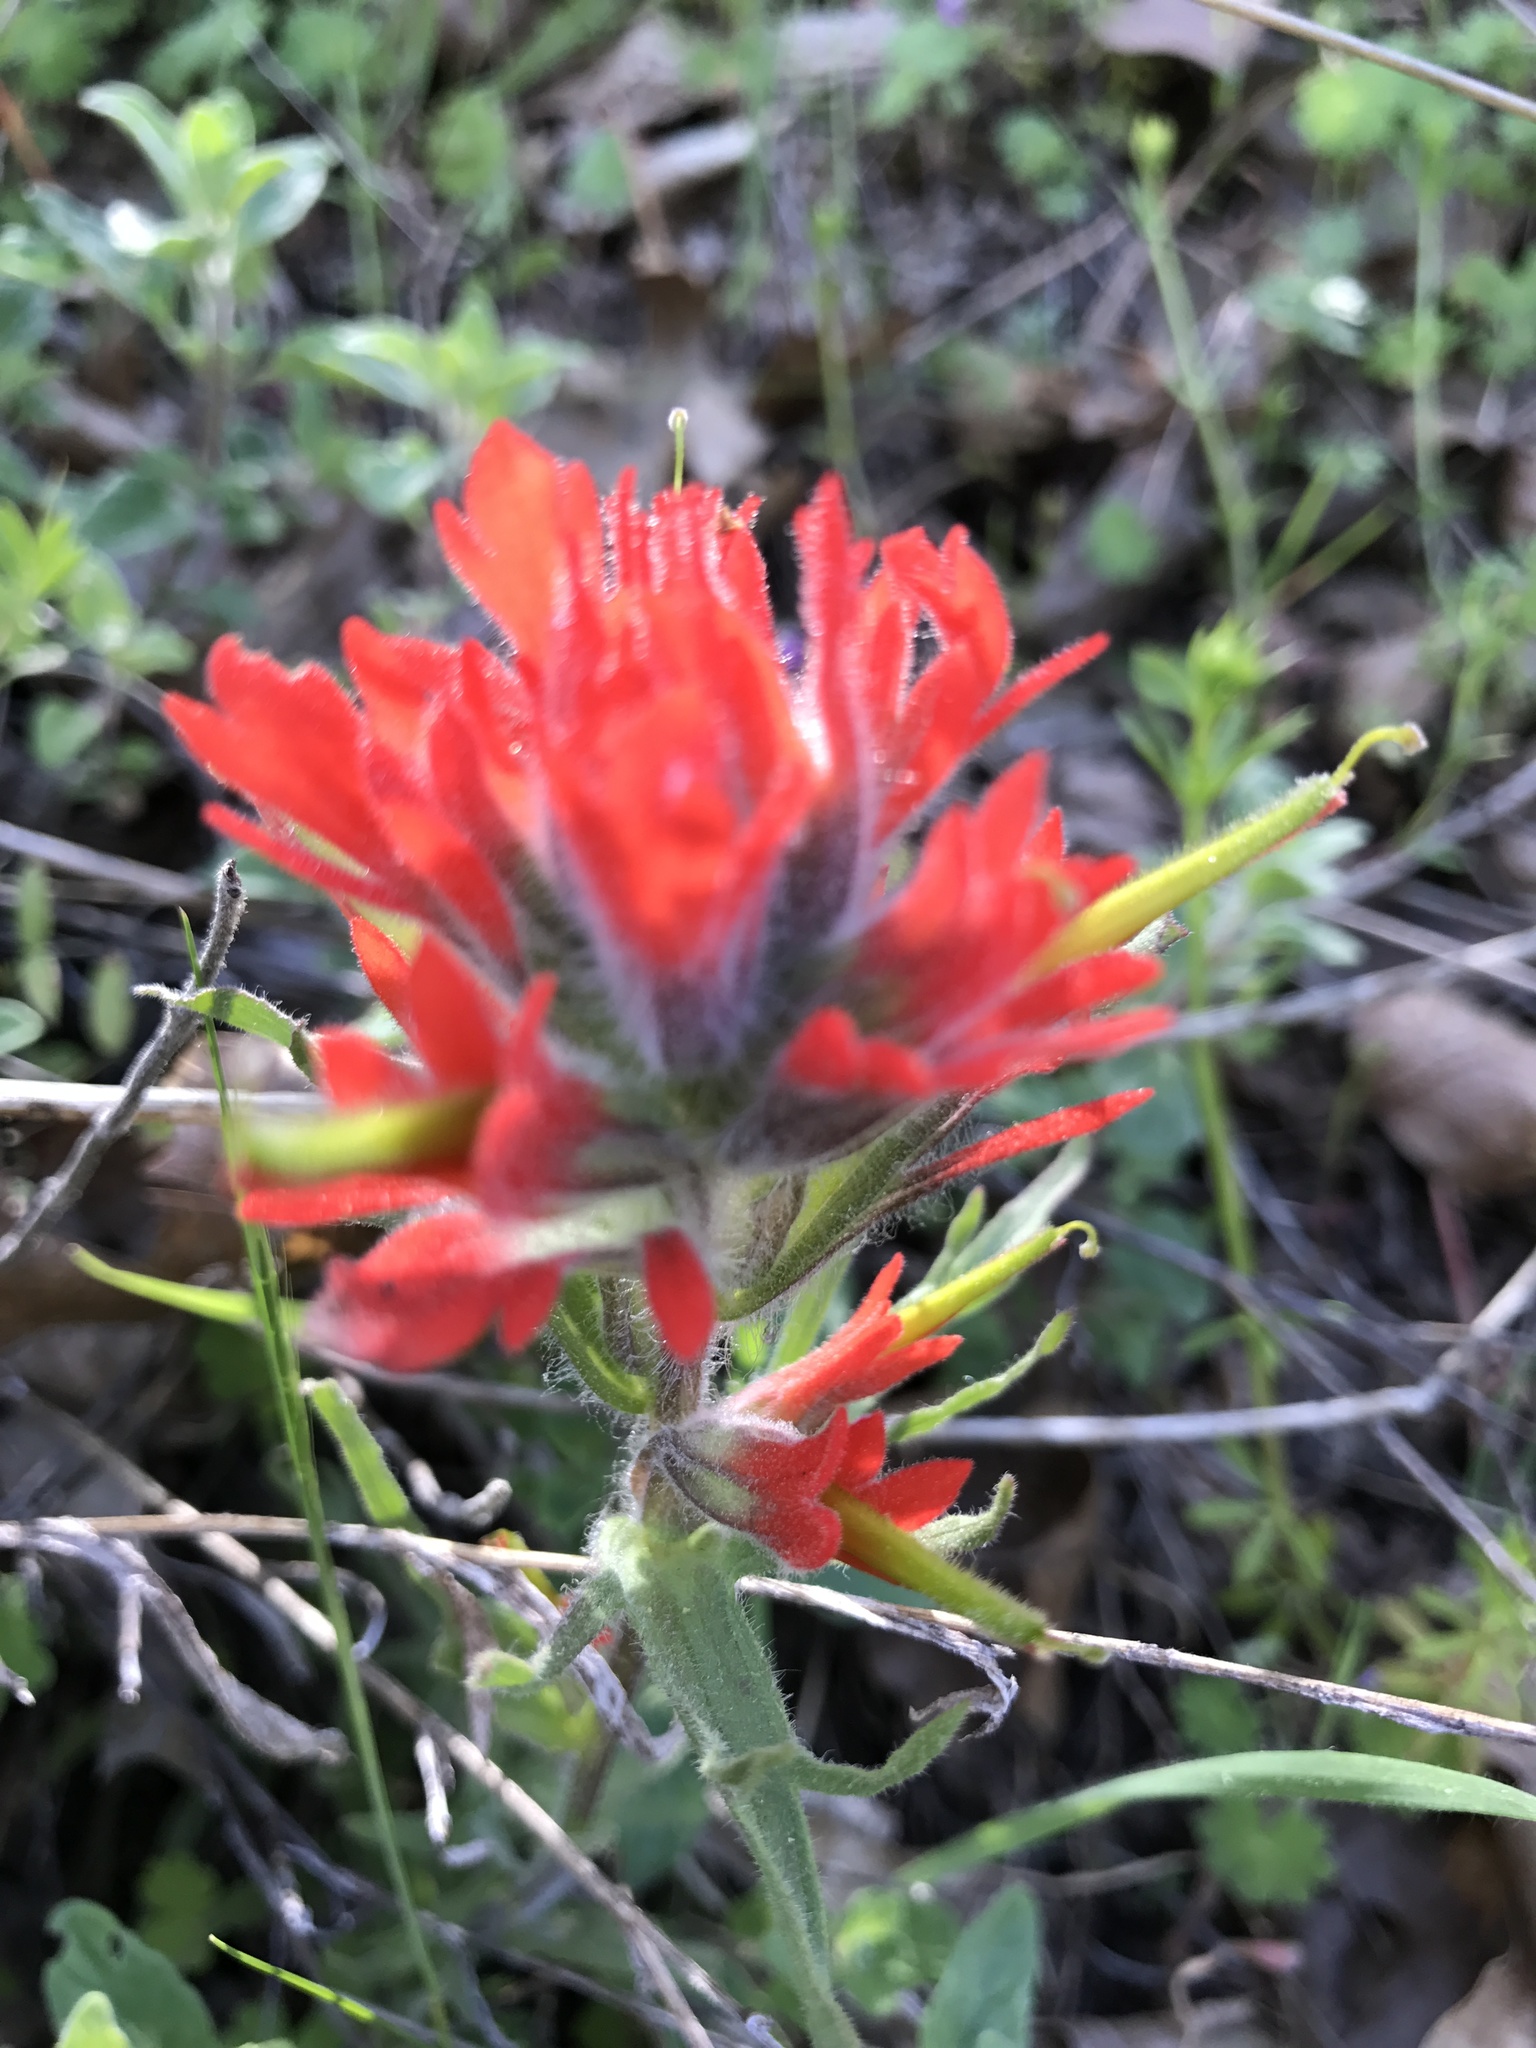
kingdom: Plantae
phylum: Tracheophyta
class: Magnoliopsida
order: Lamiales
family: Orobanchaceae
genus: Castilleja
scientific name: Castilleja affinis
